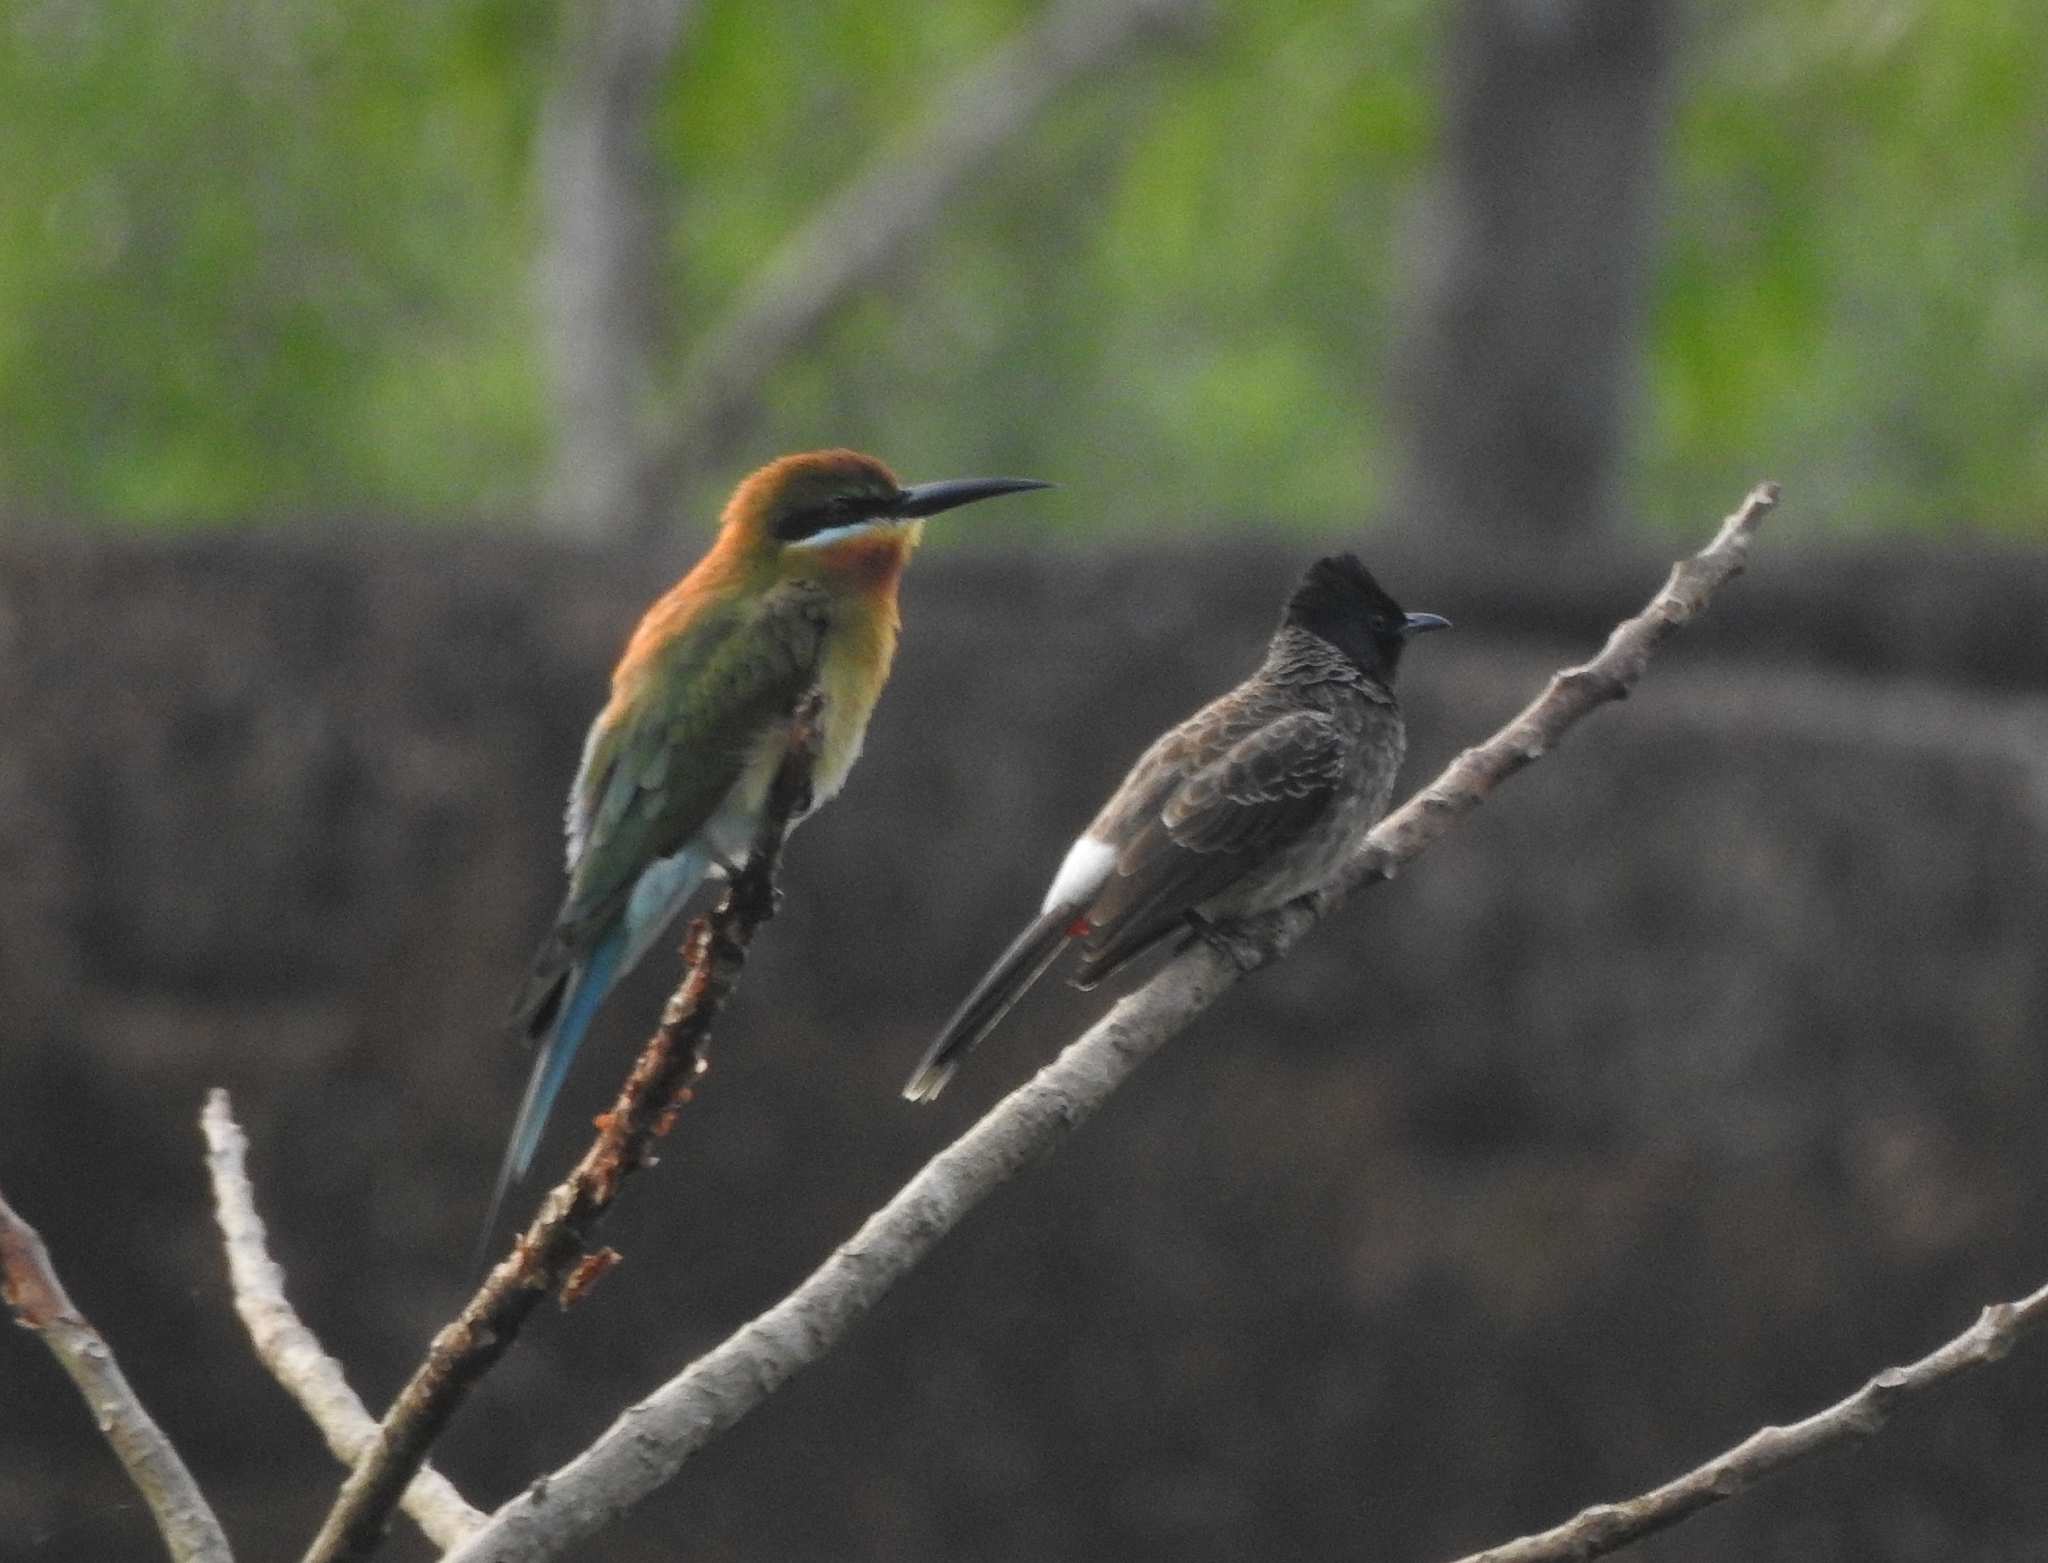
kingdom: Animalia
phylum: Chordata
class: Aves
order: Passeriformes
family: Pycnonotidae
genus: Pycnonotus
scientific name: Pycnonotus cafer
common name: Red-vented bulbul
